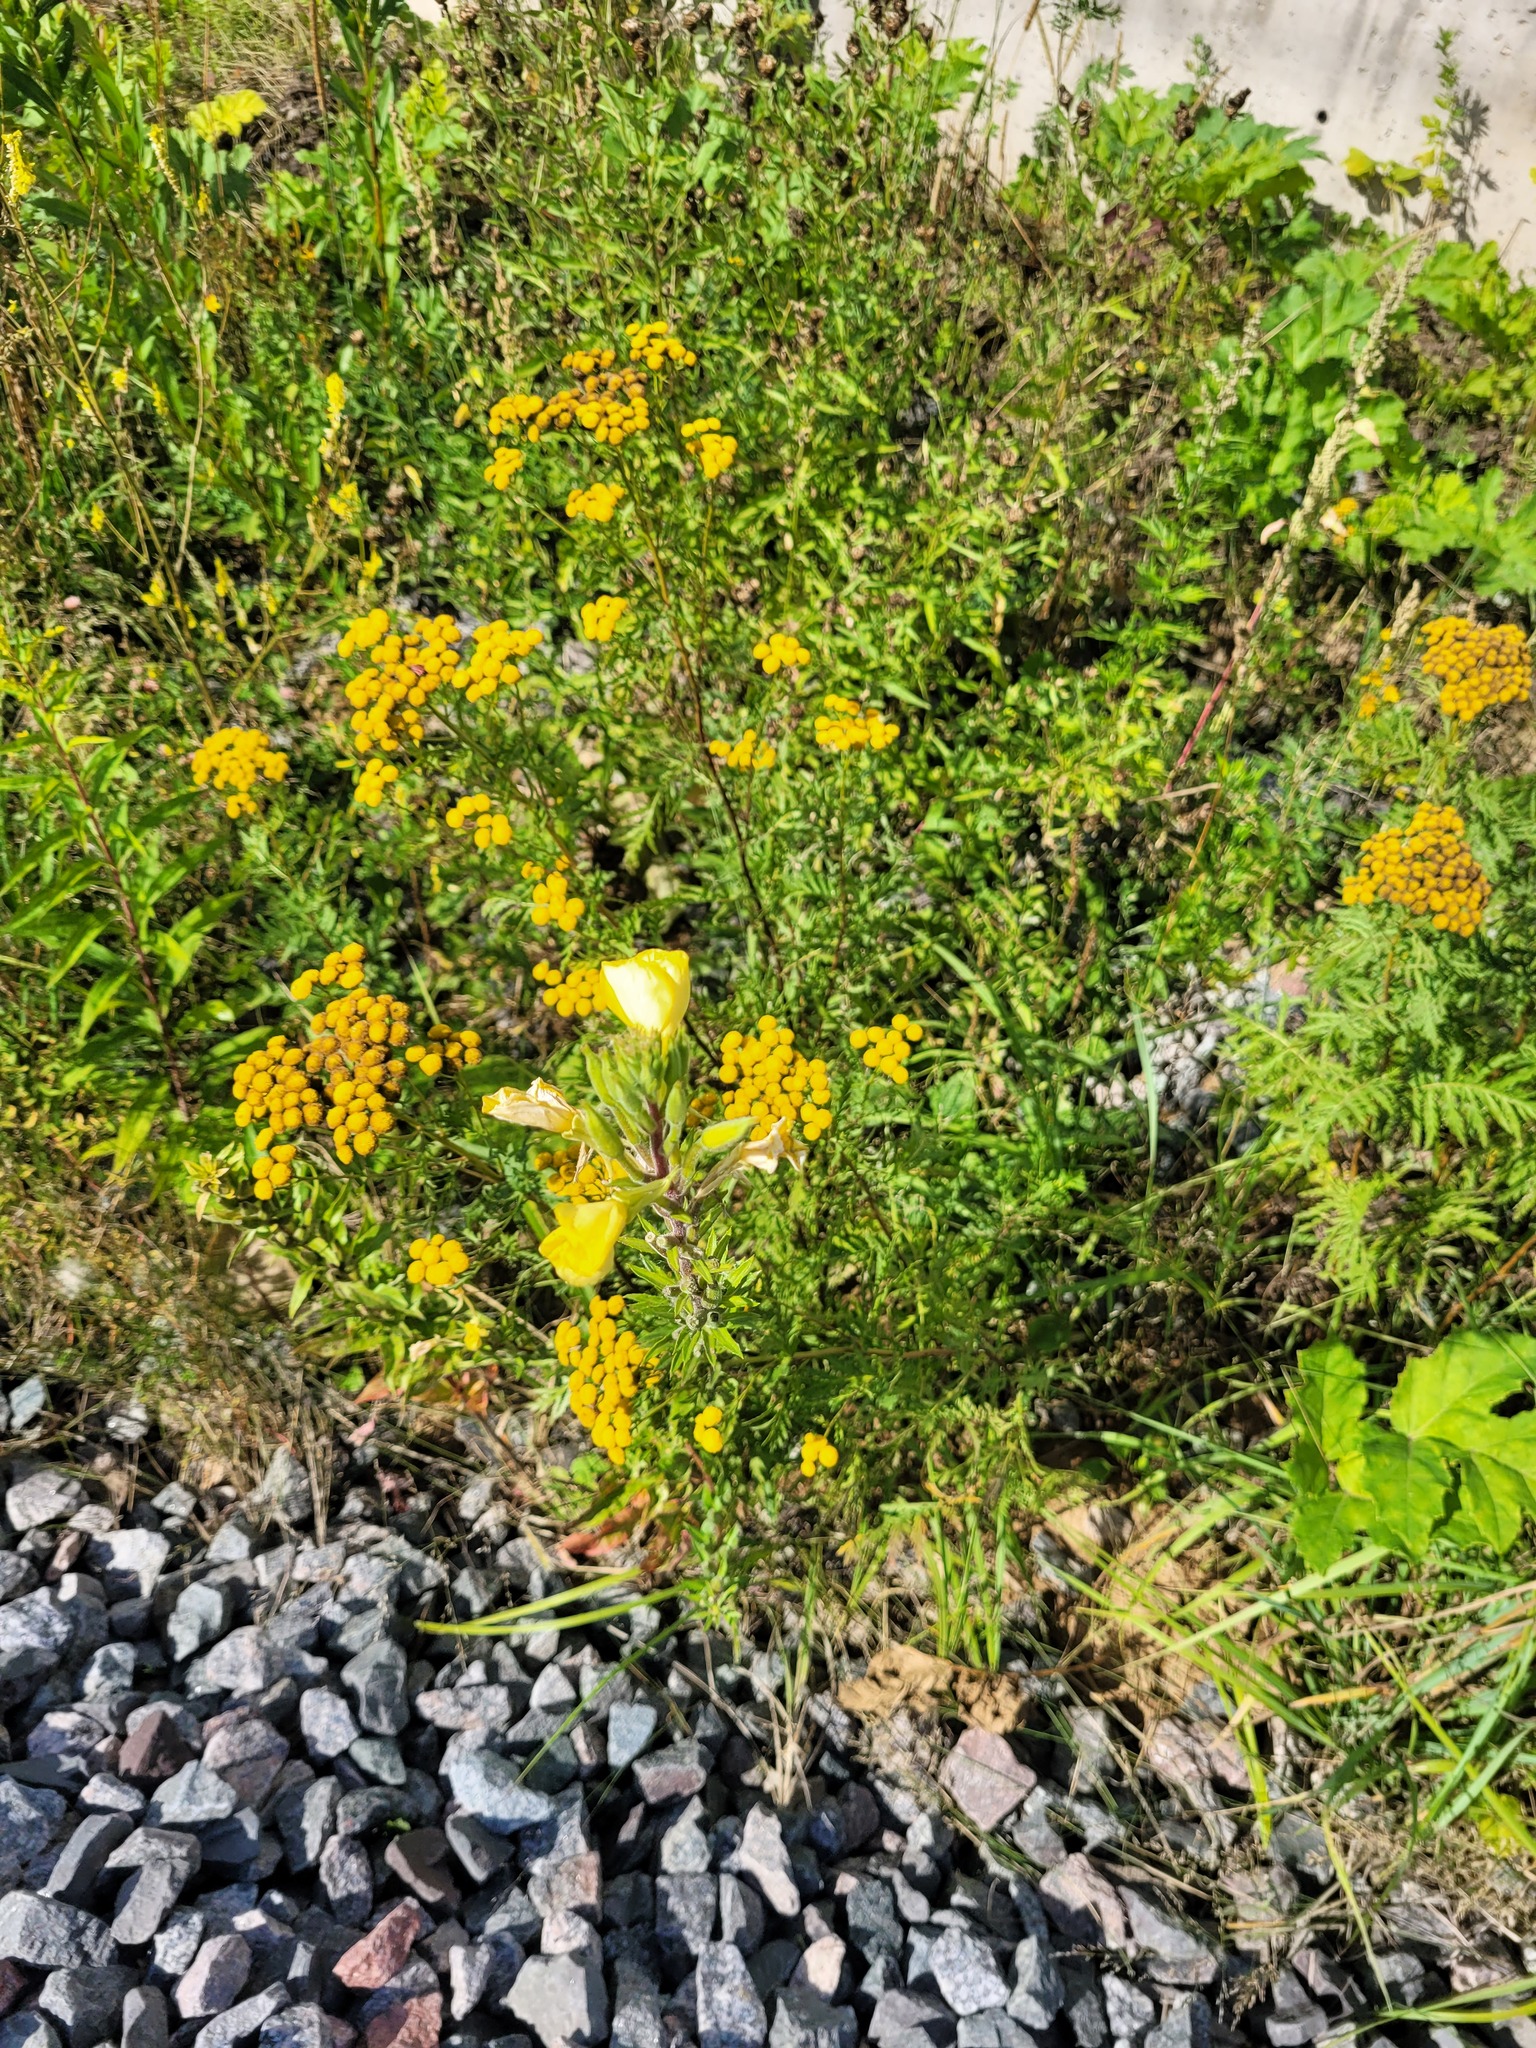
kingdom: Plantae
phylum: Tracheophyta
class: Magnoliopsida
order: Myrtales
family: Onagraceae
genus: Oenothera
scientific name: Oenothera rubricaulis
